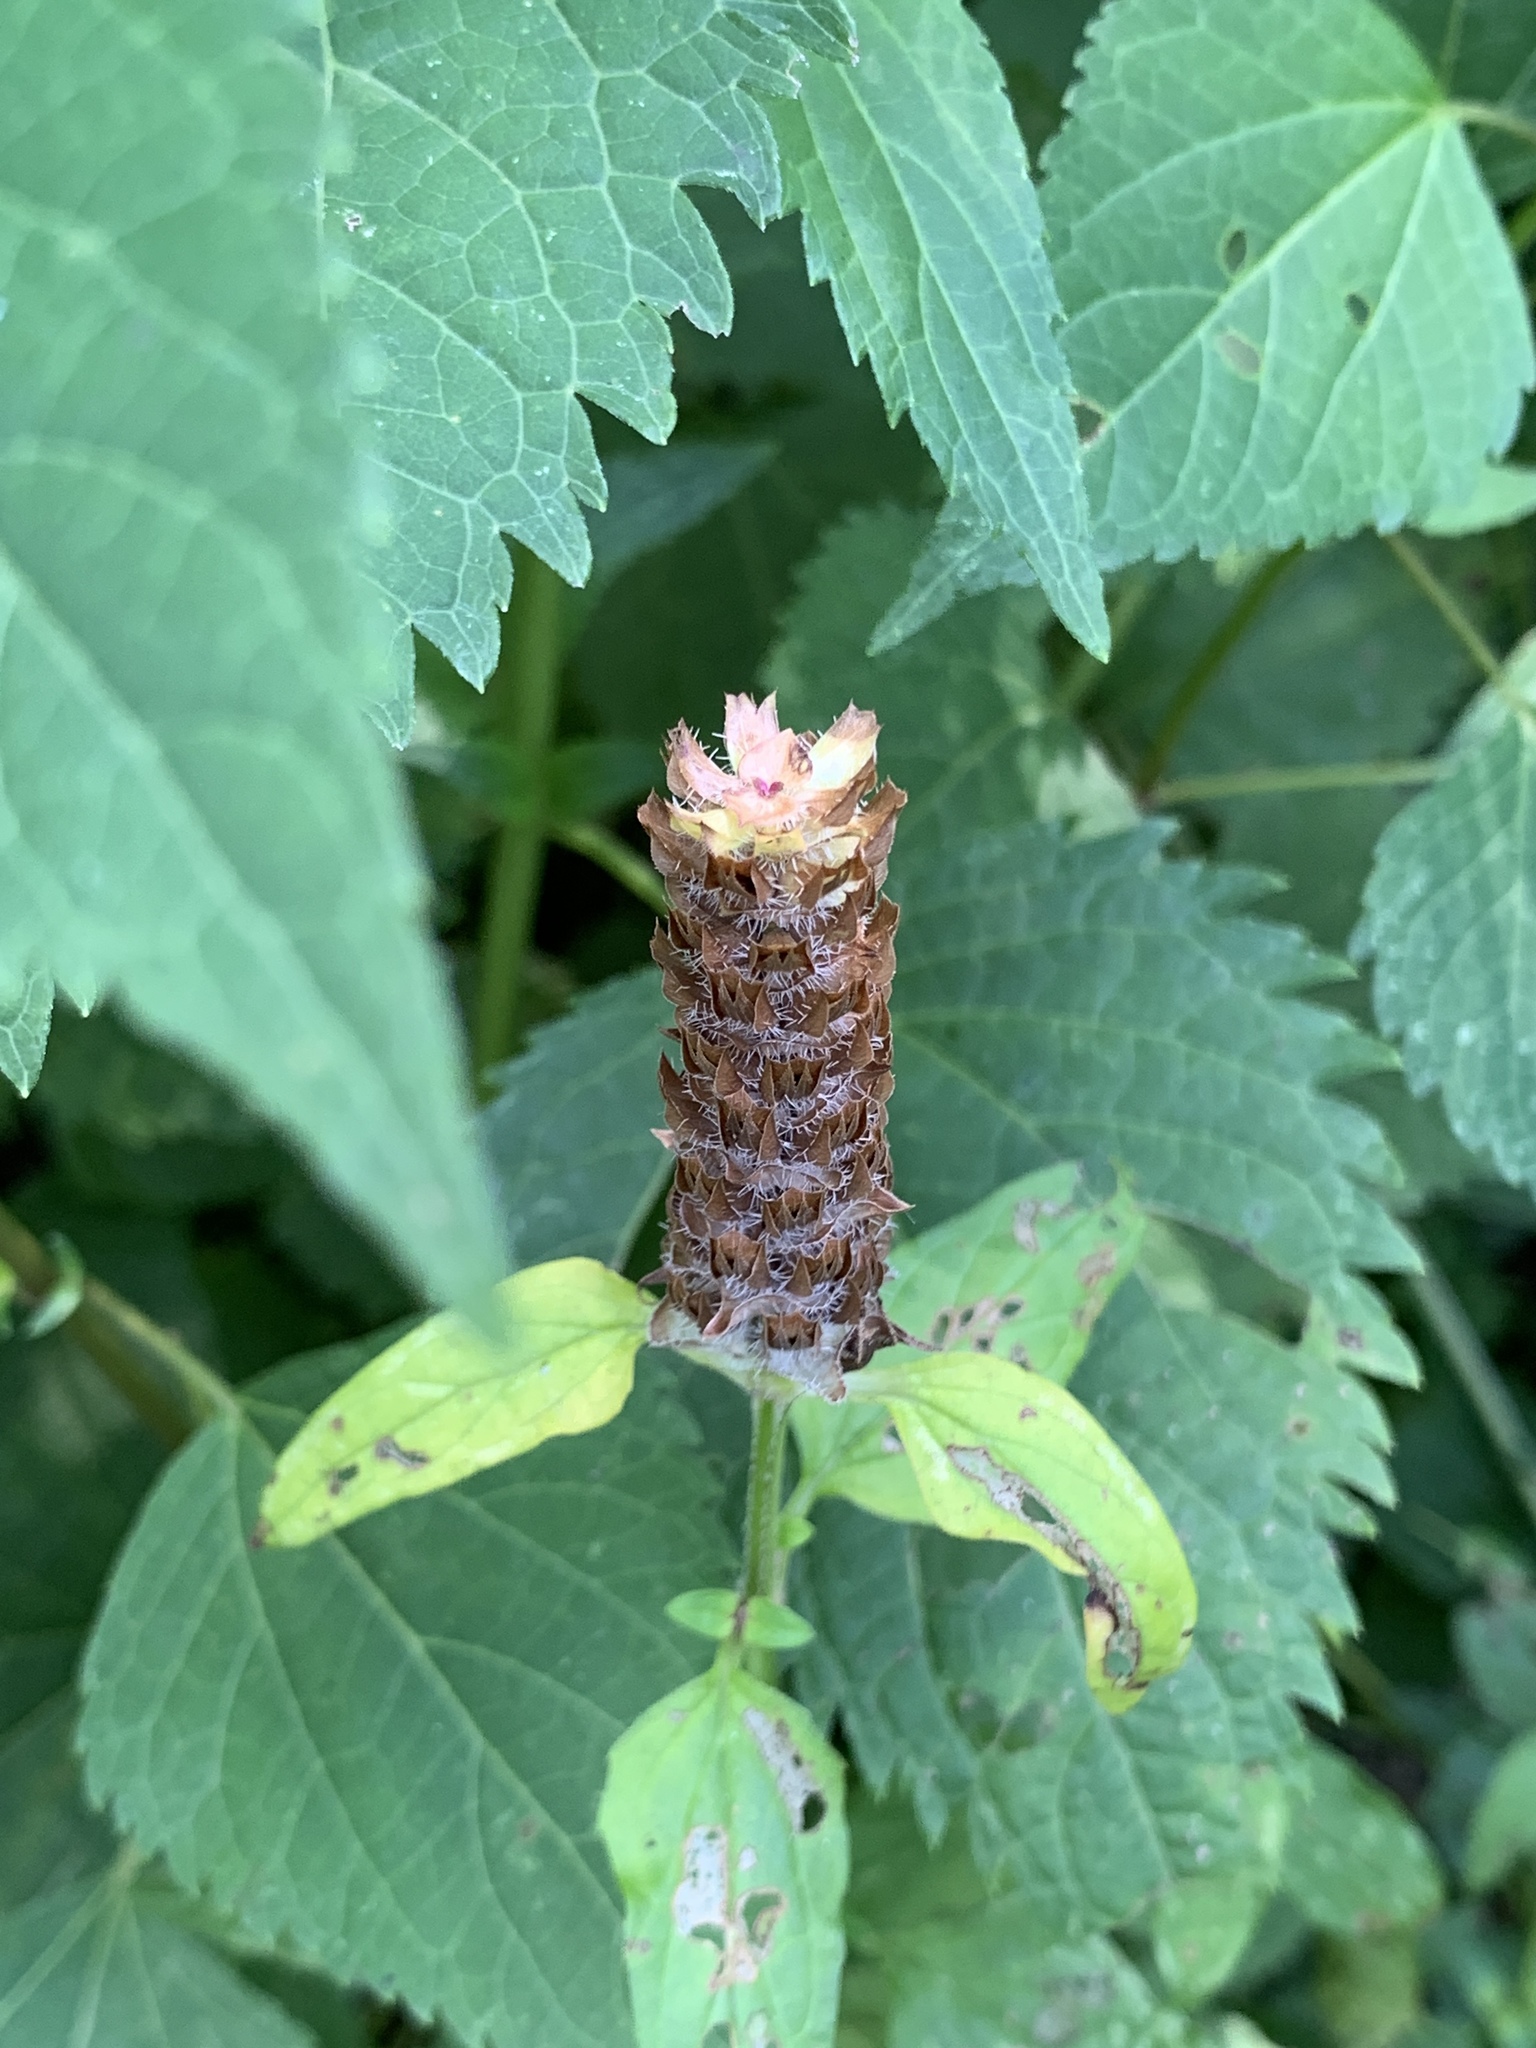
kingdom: Plantae
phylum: Tracheophyta
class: Magnoliopsida
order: Lamiales
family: Lamiaceae
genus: Prunella
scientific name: Prunella vulgaris
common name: Heal-all
